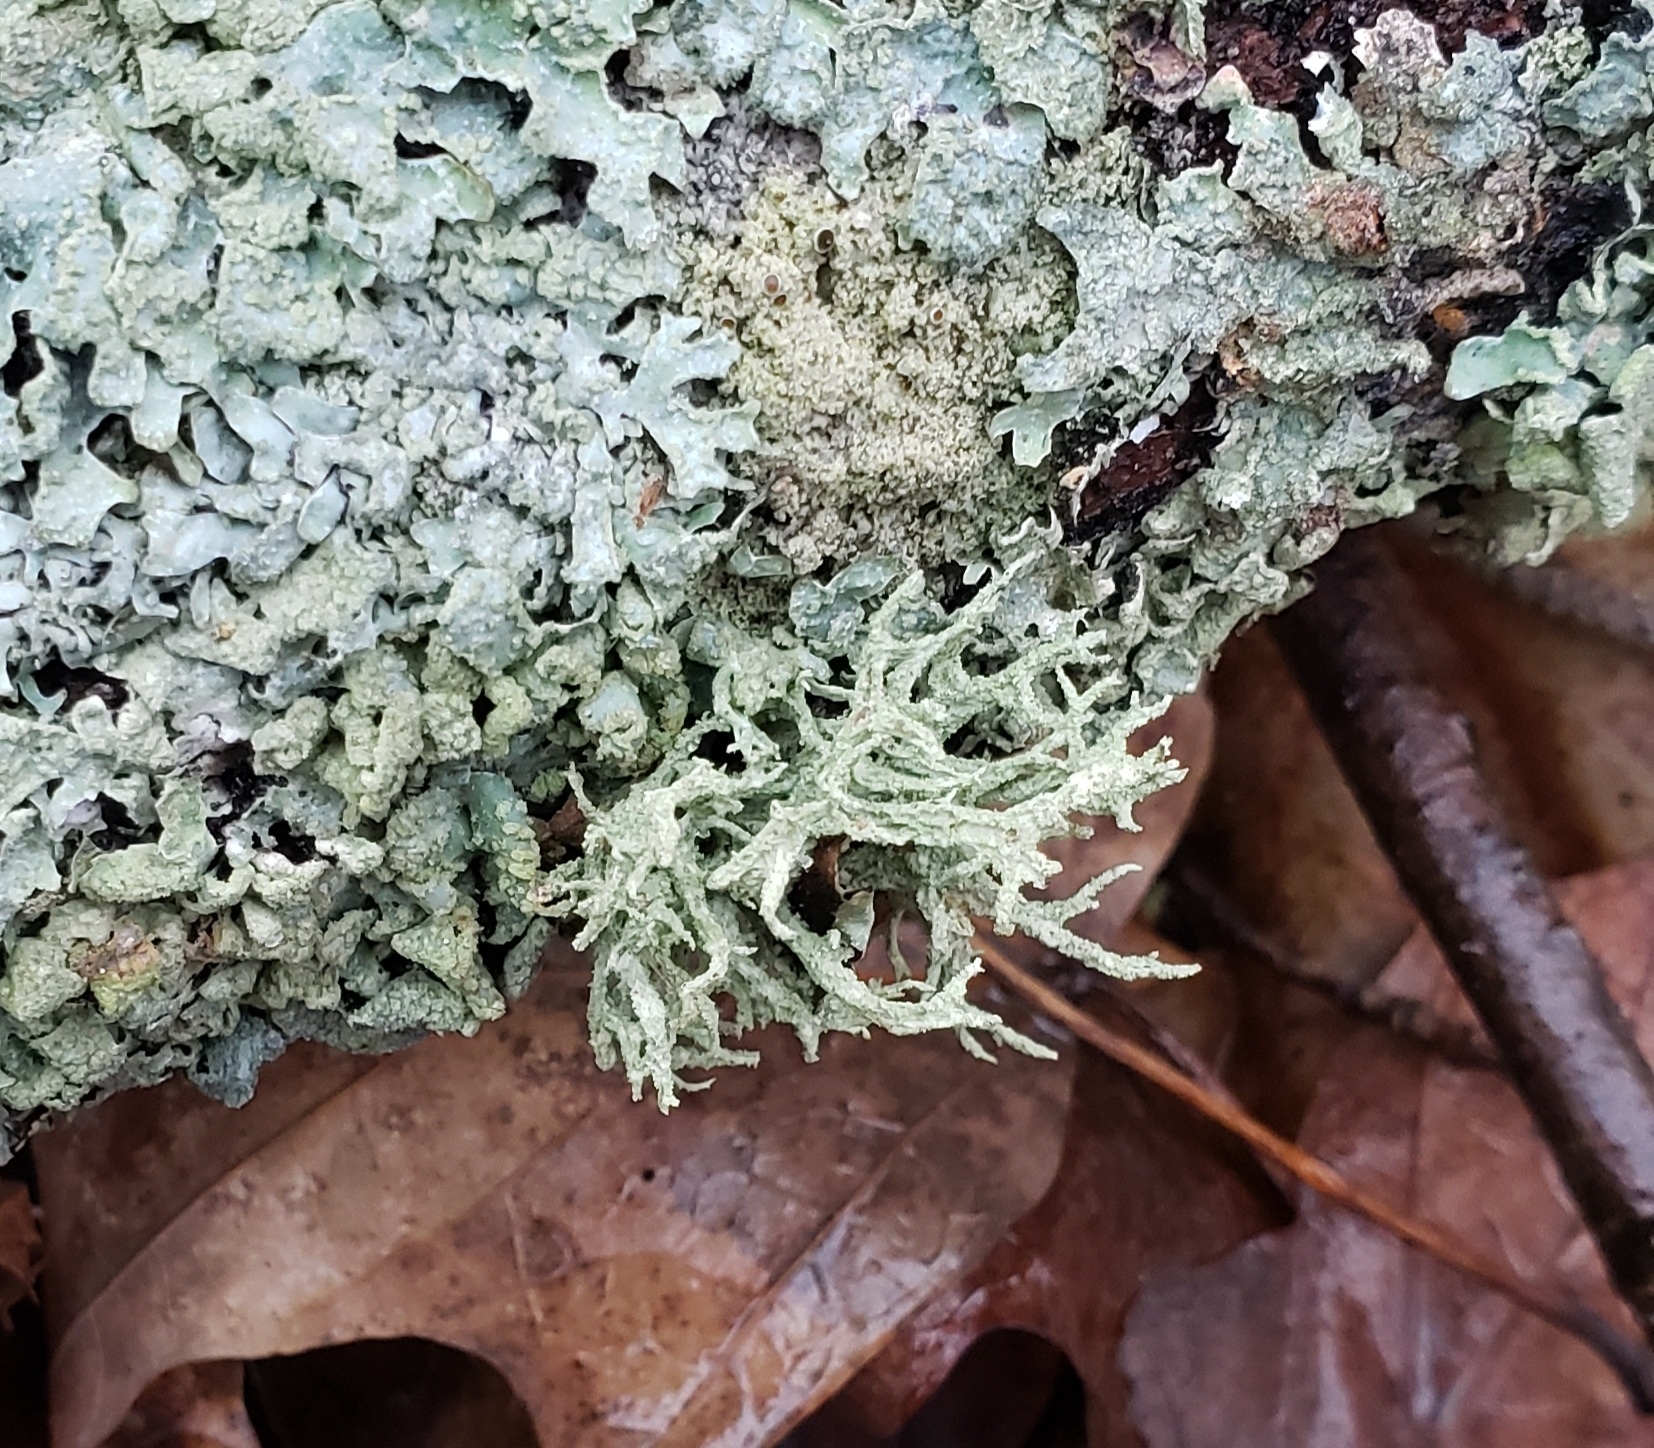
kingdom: Fungi
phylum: Ascomycota
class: Lecanoromycetes
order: Lecanorales
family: Parmeliaceae
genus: Evernia
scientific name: Evernia mesomorpha
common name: Boreal oak moss lichen
